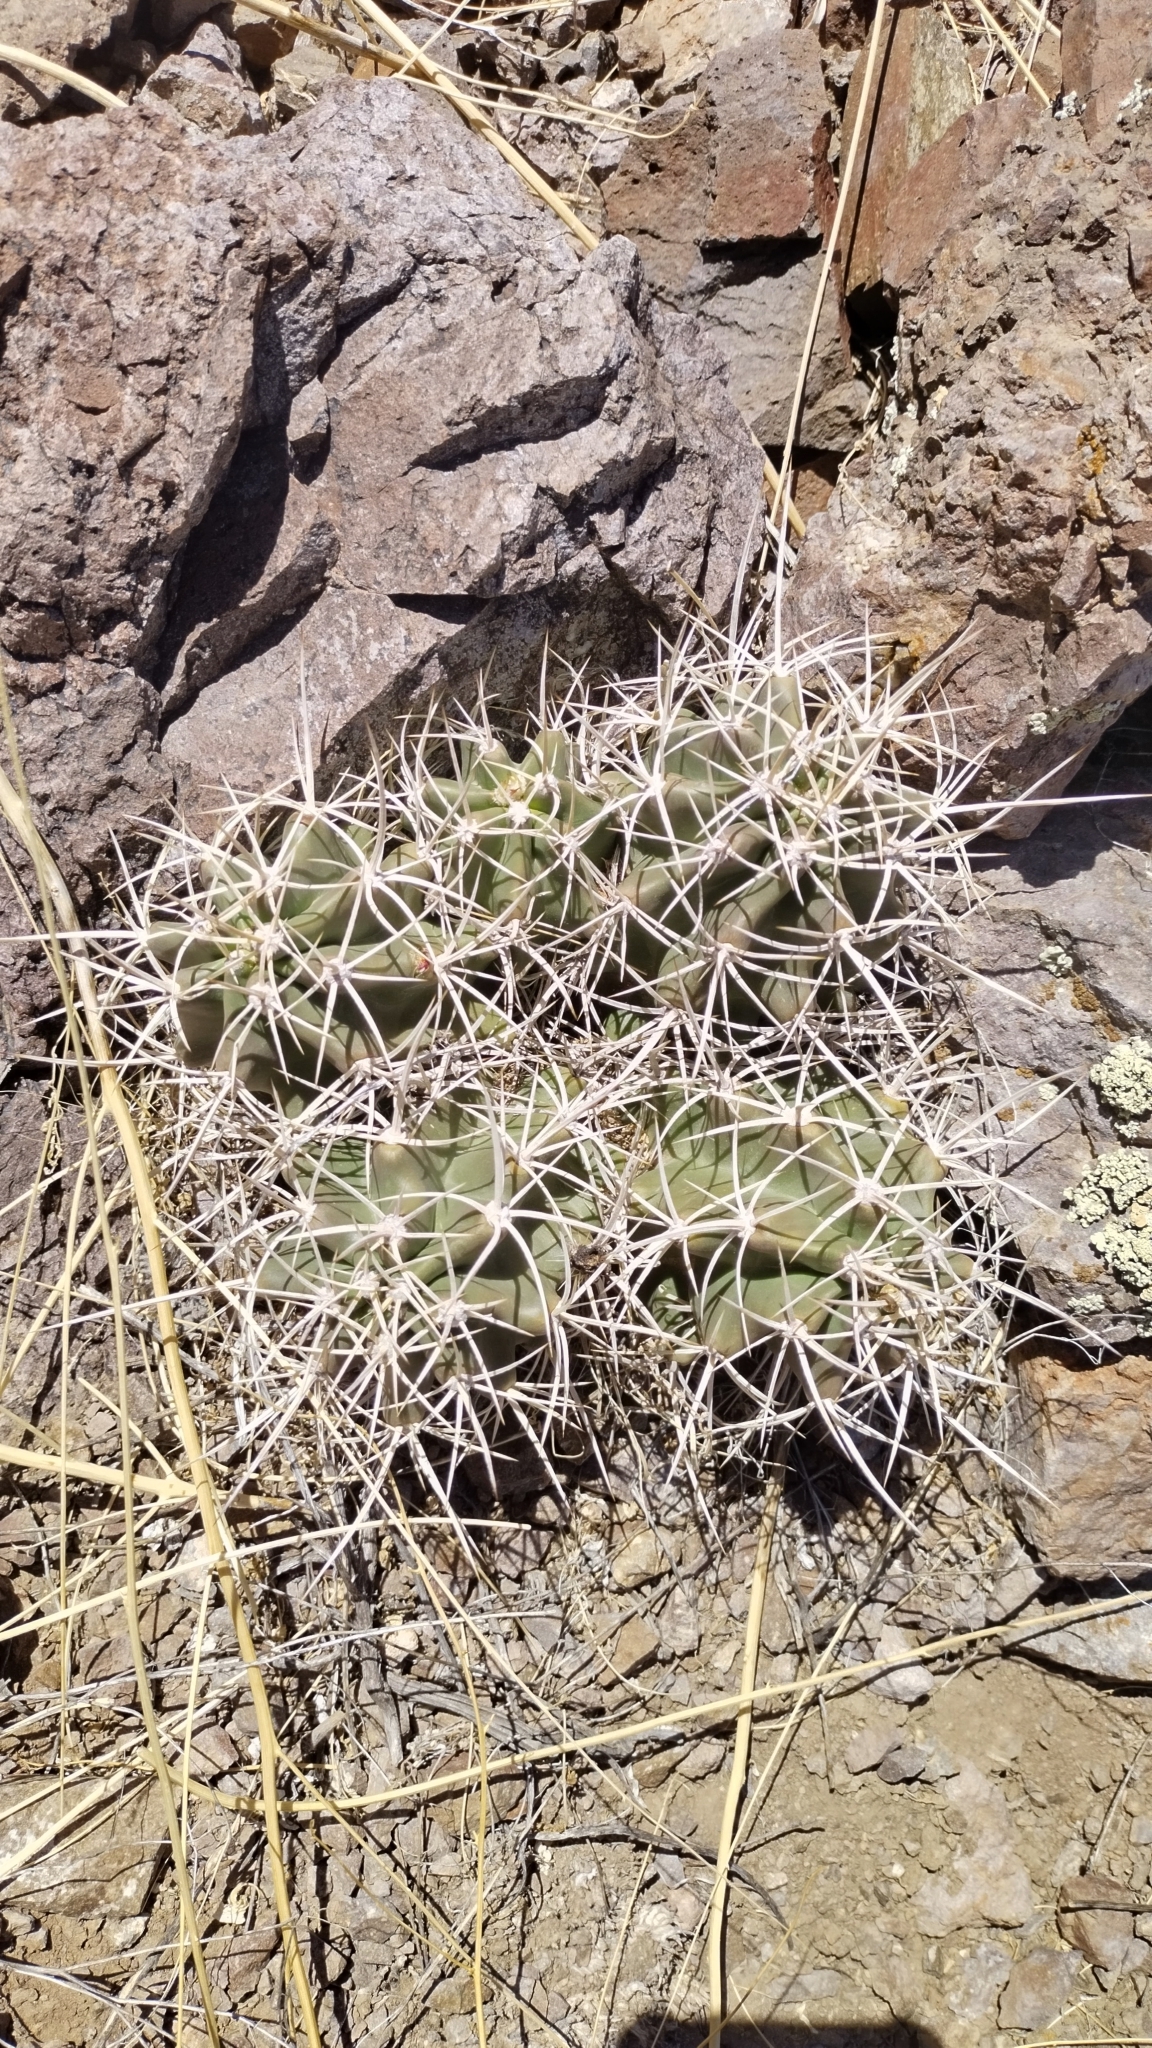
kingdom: Plantae
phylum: Tracheophyta
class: Magnoliopsida
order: Caryophyllales
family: Cactaceae
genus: Echinocereus
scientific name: Echinocereus triglochidiatus
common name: Claretcup hedgehog
